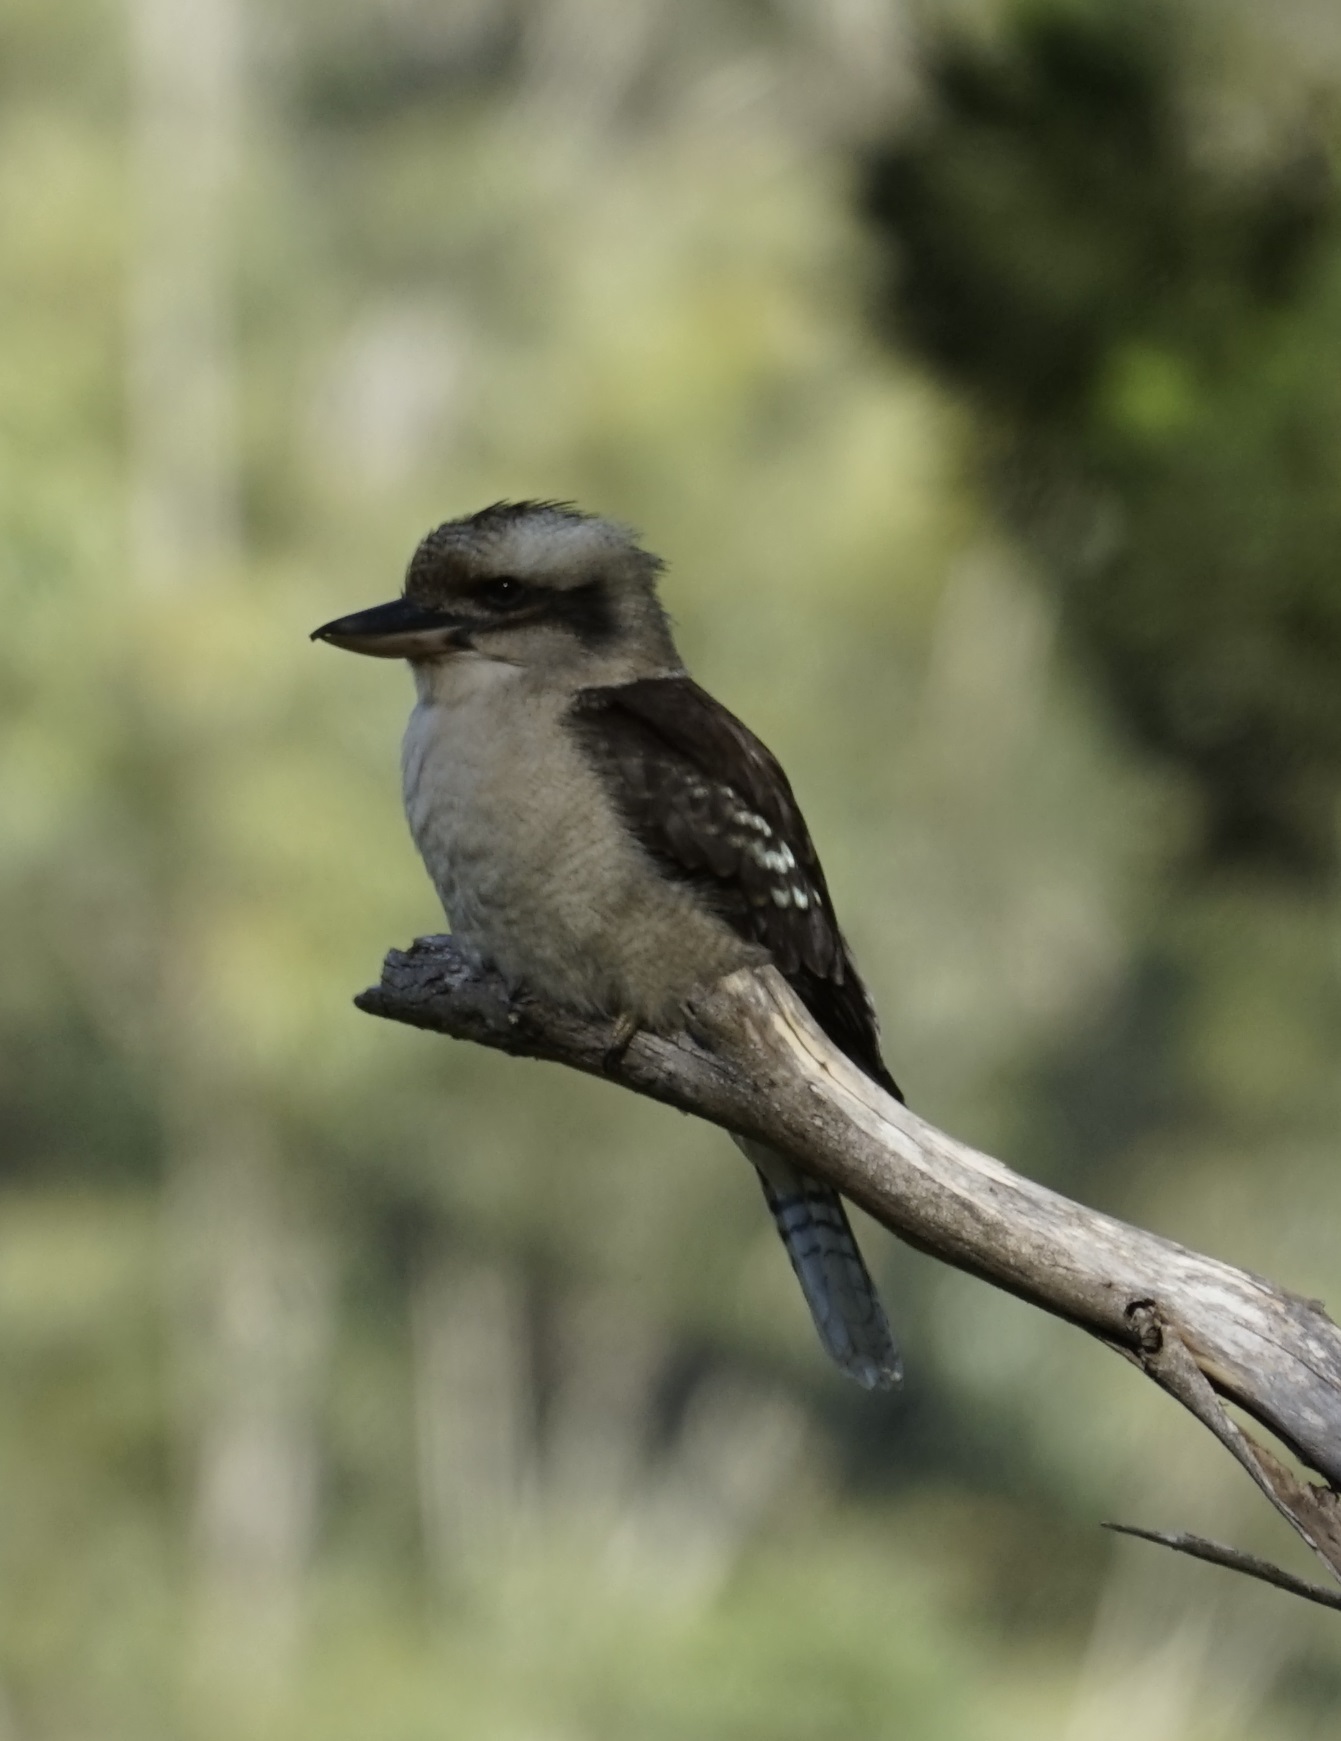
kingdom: Animalia
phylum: Chordata
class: Aves
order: Coraciiformes
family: Alcedinidae
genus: Dacelo
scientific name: Dacelo novaeguineae
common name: Laughing kookaburra
